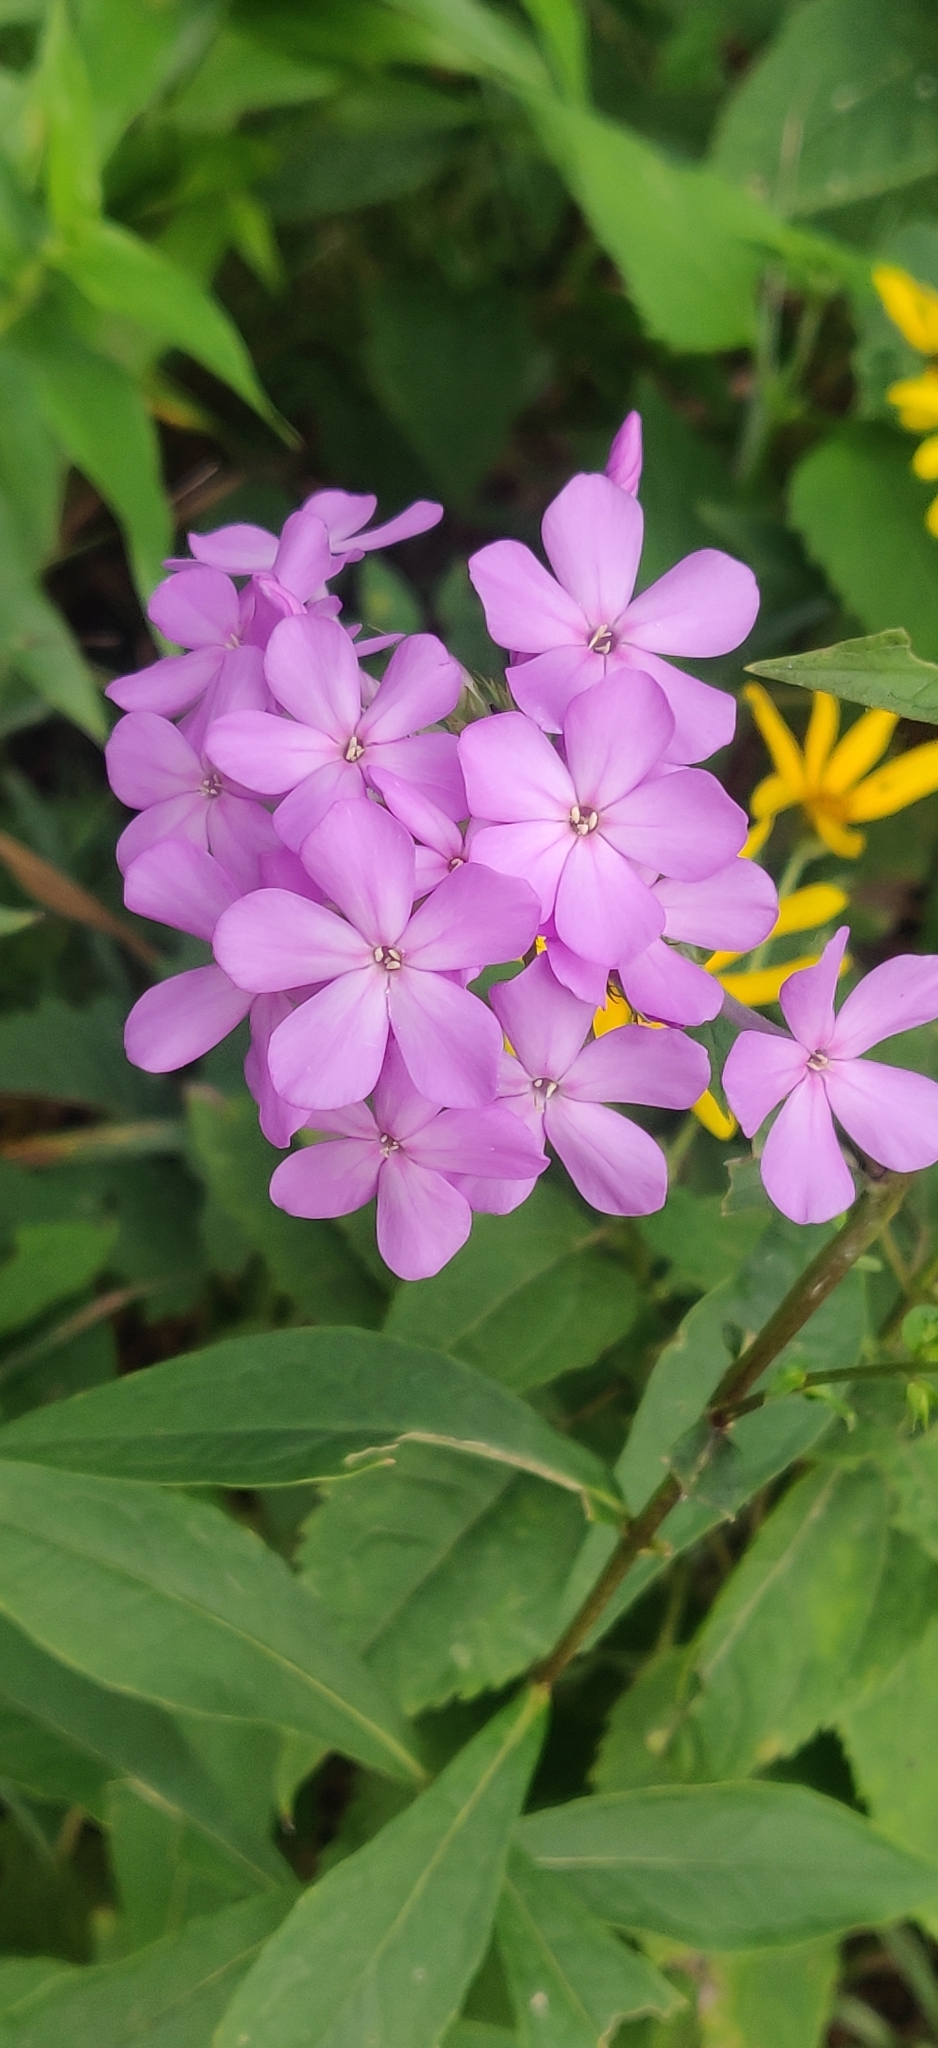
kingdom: Plantae
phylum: Tracheophyta
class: Magnoliopsida
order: Ericales
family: Polemoniaceae
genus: Phlox
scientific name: Phlox paniculata
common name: Fall phlox
